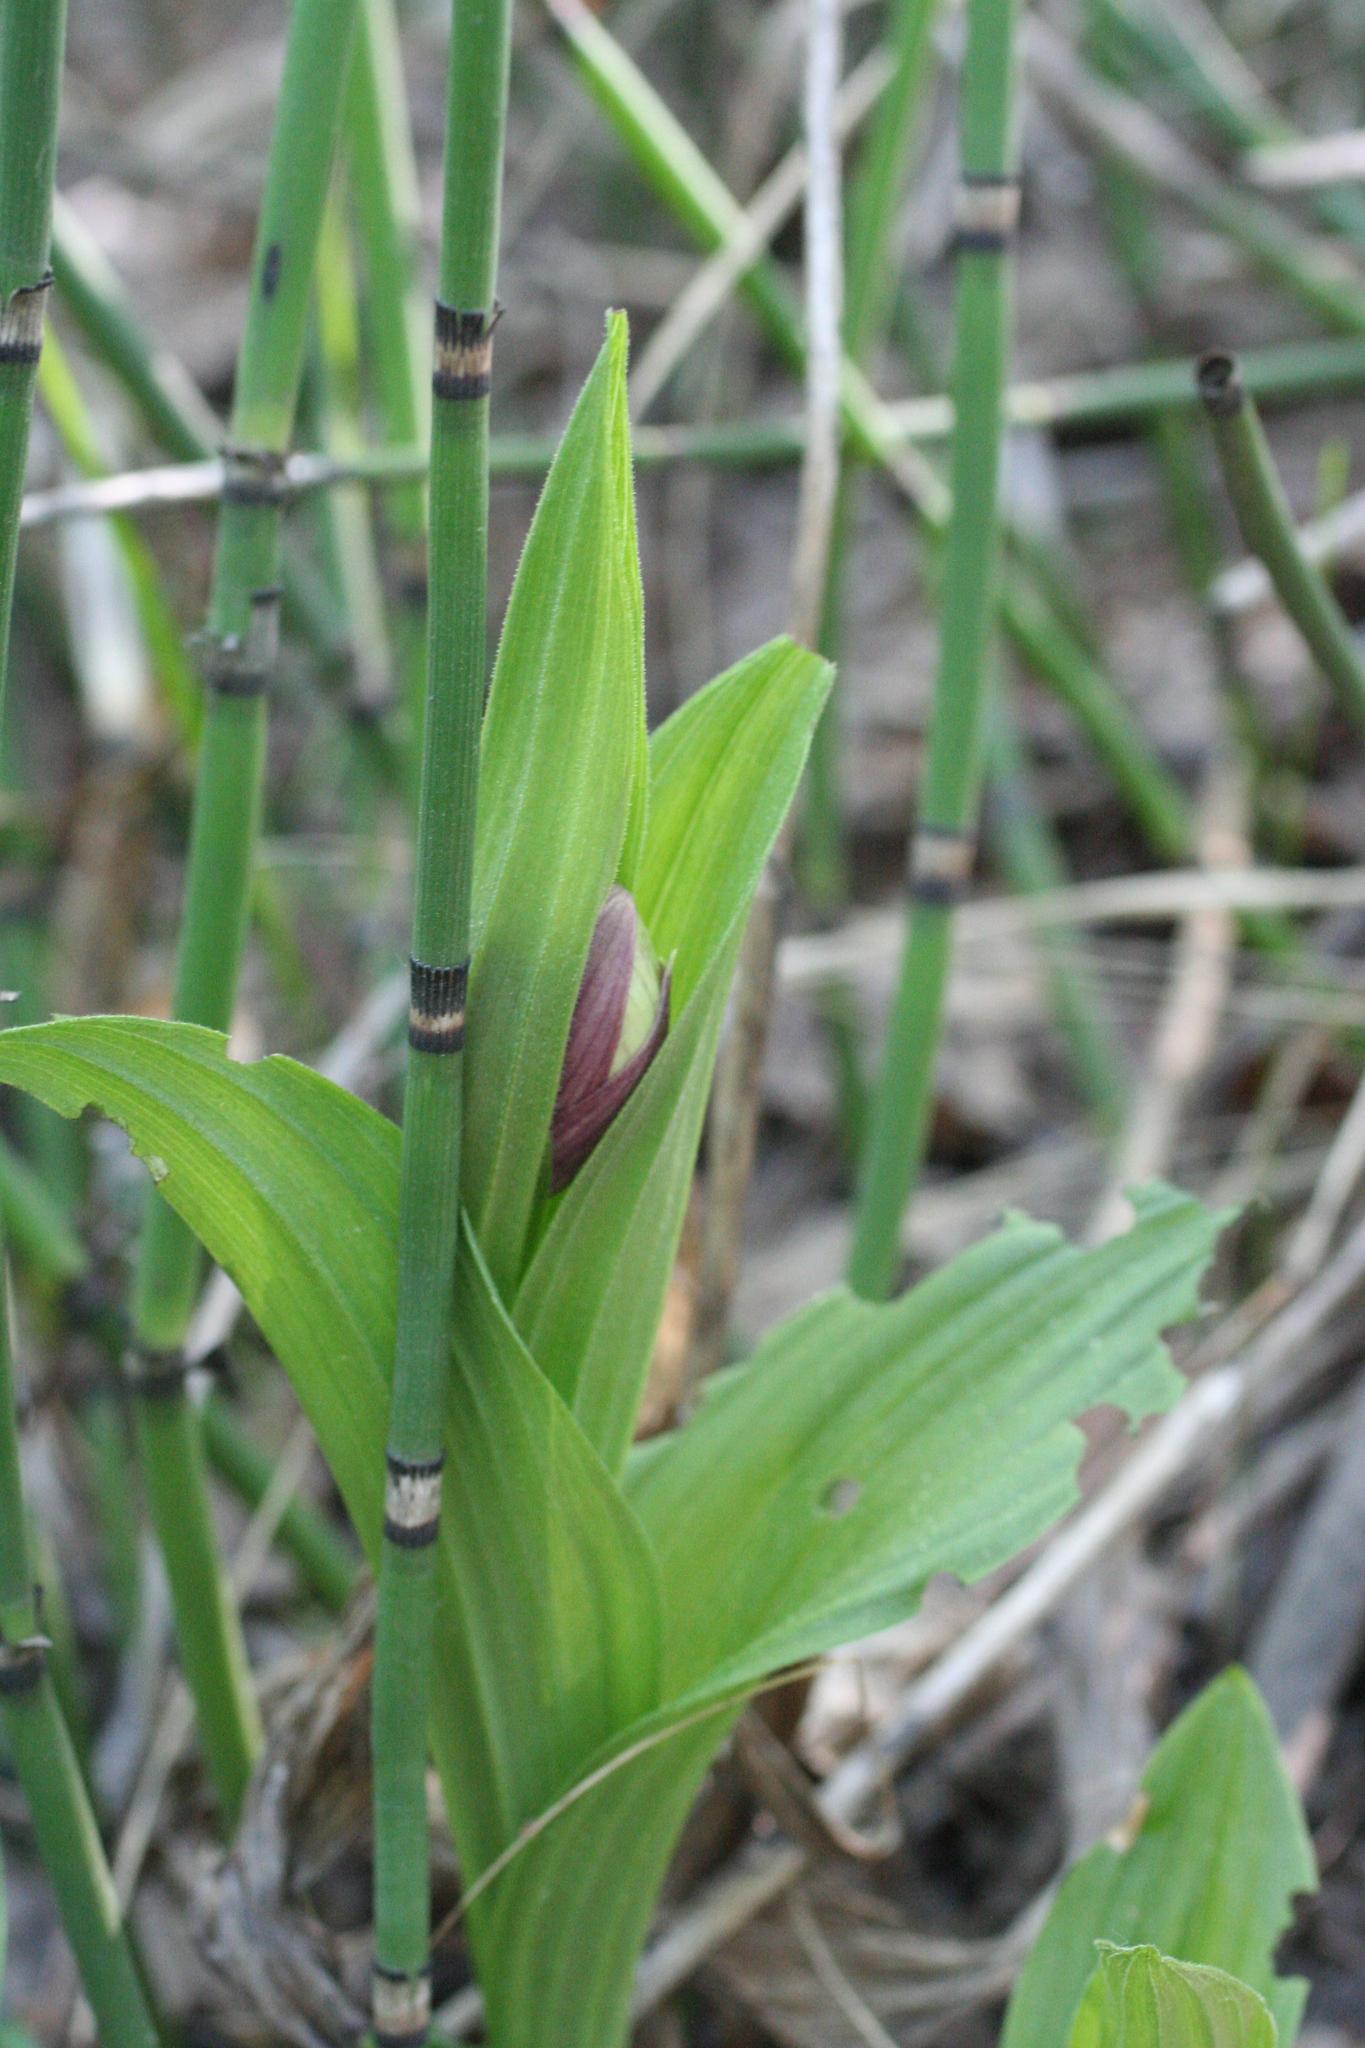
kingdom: Plantae
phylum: Tracheophyta
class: Liliopsida
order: Asparagales
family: Orchidaceae
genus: Cypripedium
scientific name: Cypripedium macranthos
